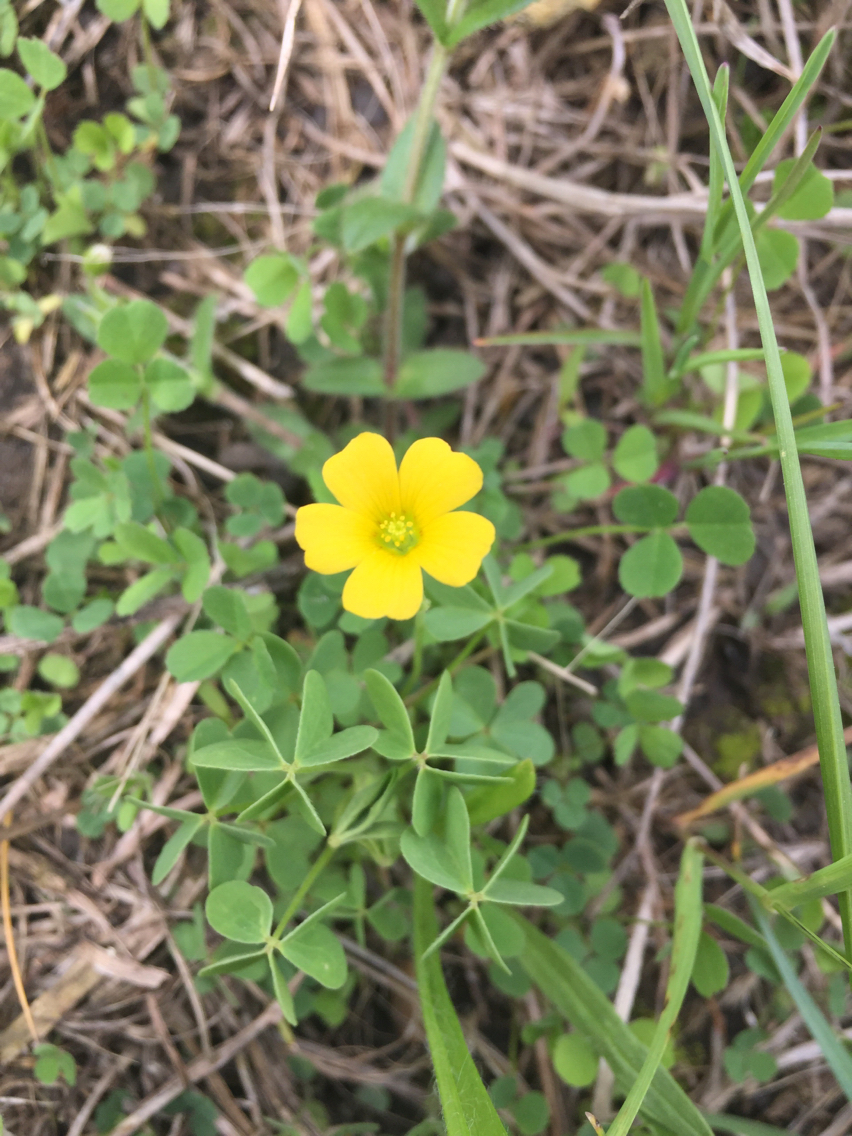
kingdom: Plantae
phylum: Tracheophyta
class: Magnoliopsida
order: Oxalidales
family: Oxalidaceae
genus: Oxalis
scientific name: Oxalis stricta
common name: Upright yellow-sorrel
